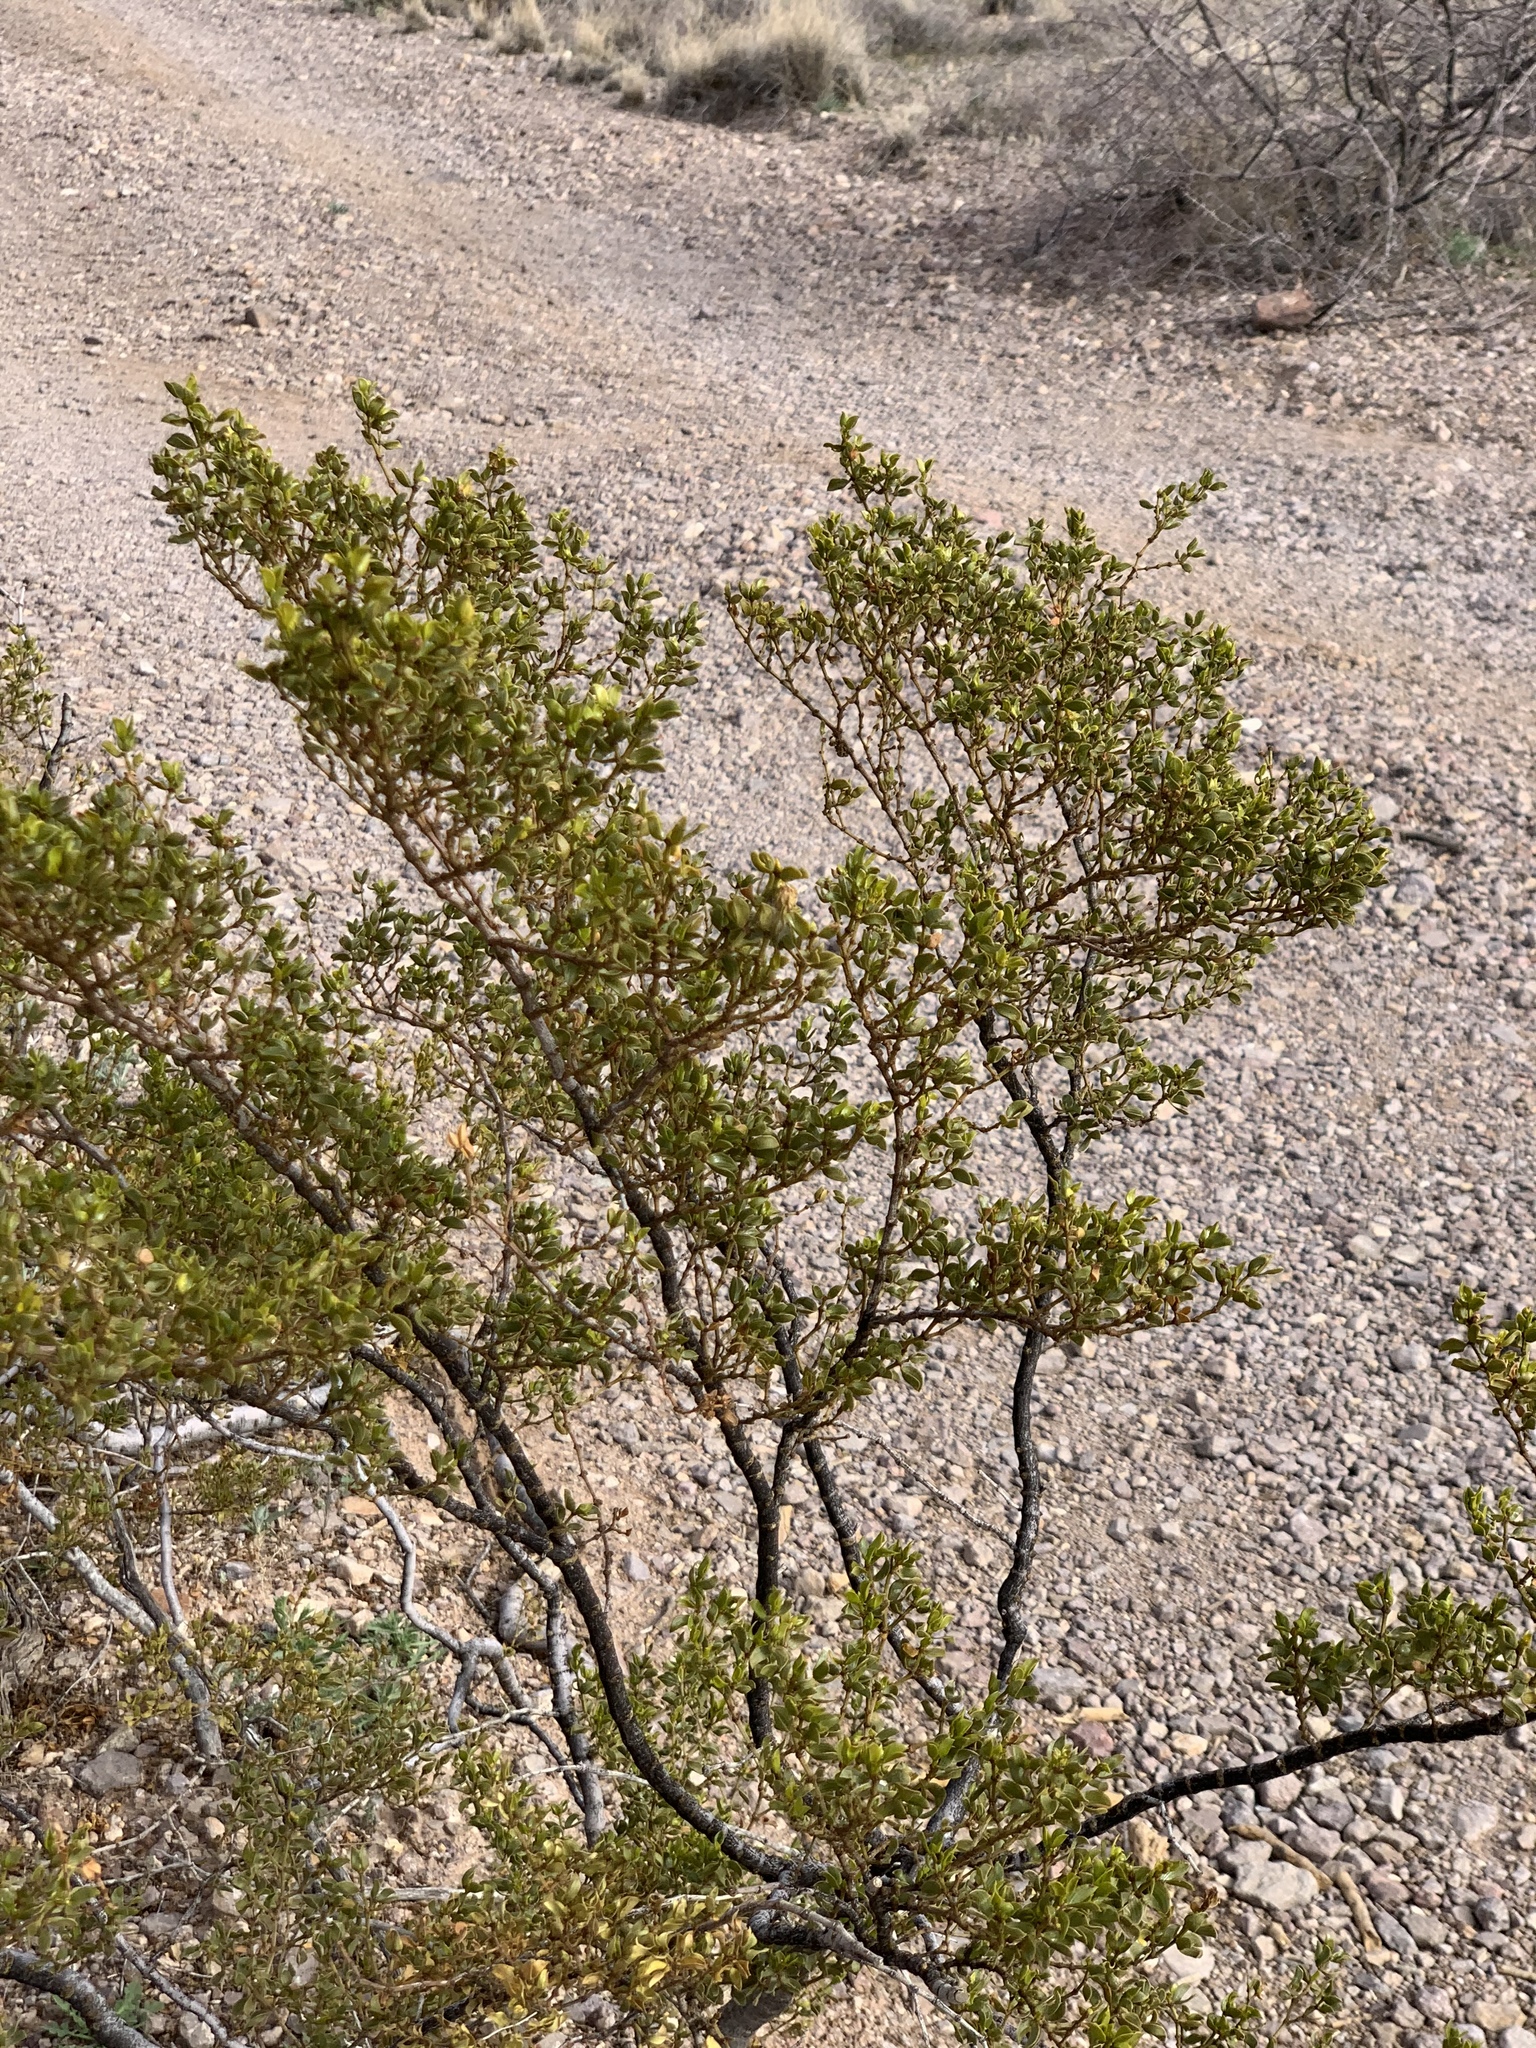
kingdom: Plantae
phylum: Tracheophyta
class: Magnoliopsida
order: Zygophyllales
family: Zygophyllaceae
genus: Larrea
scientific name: Larrea tridentata
